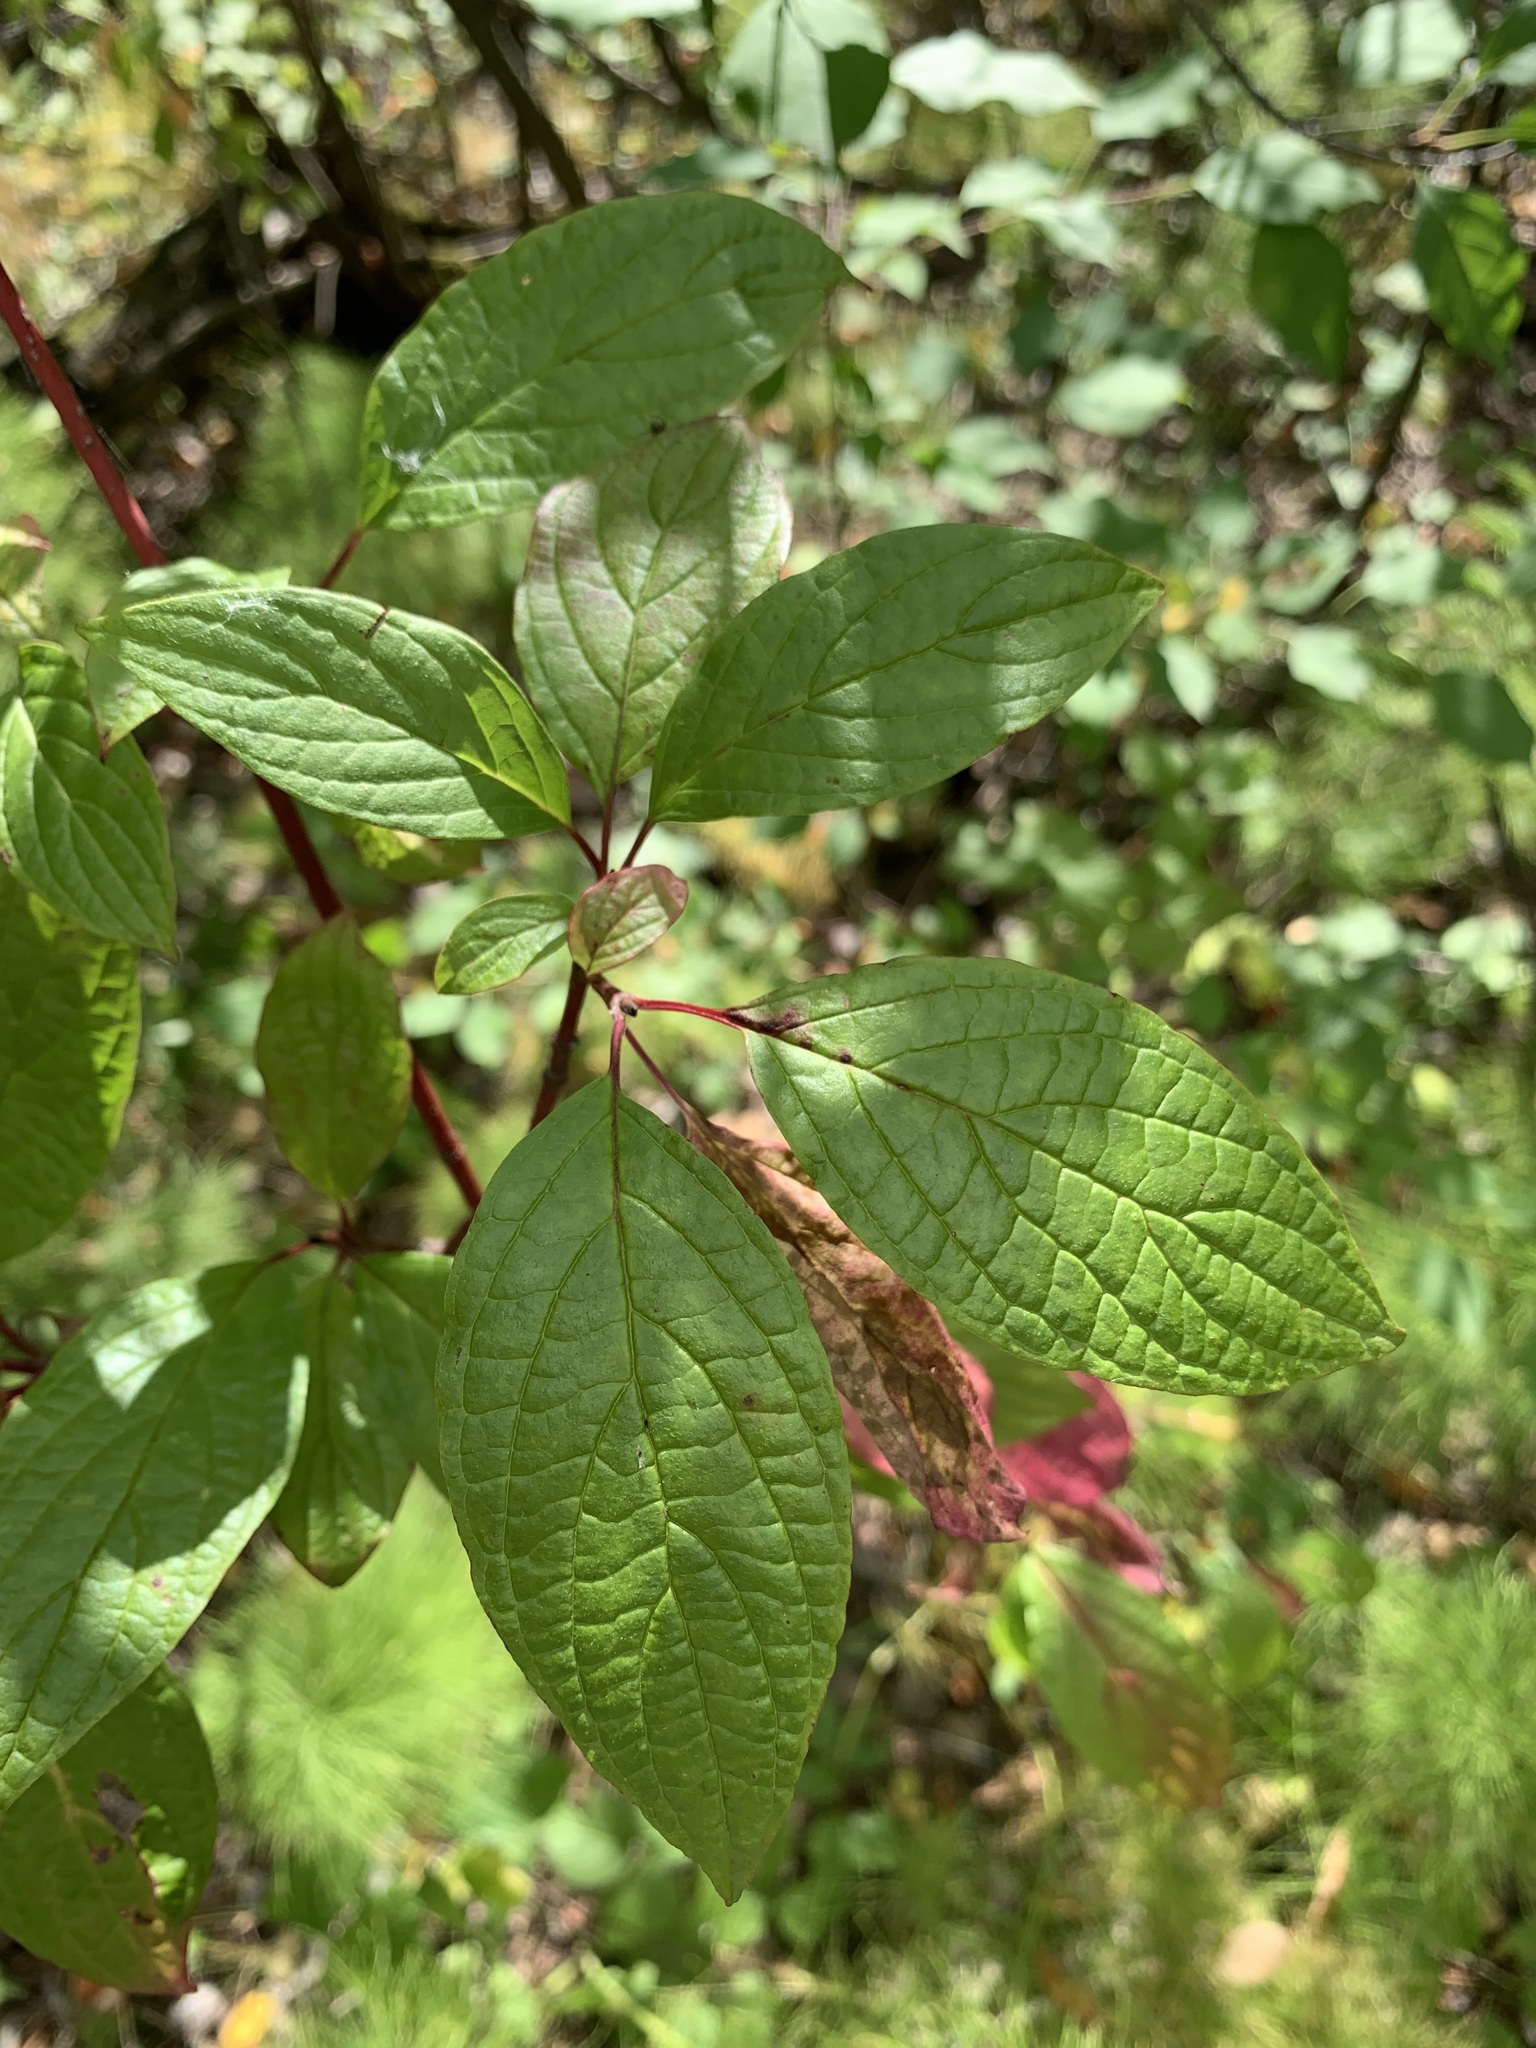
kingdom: Plantae
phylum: Tracheophyta
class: Magnoliopsida
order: Cornales
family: Cornaceae
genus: Cornus
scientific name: Cornus alba
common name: White dogwood
